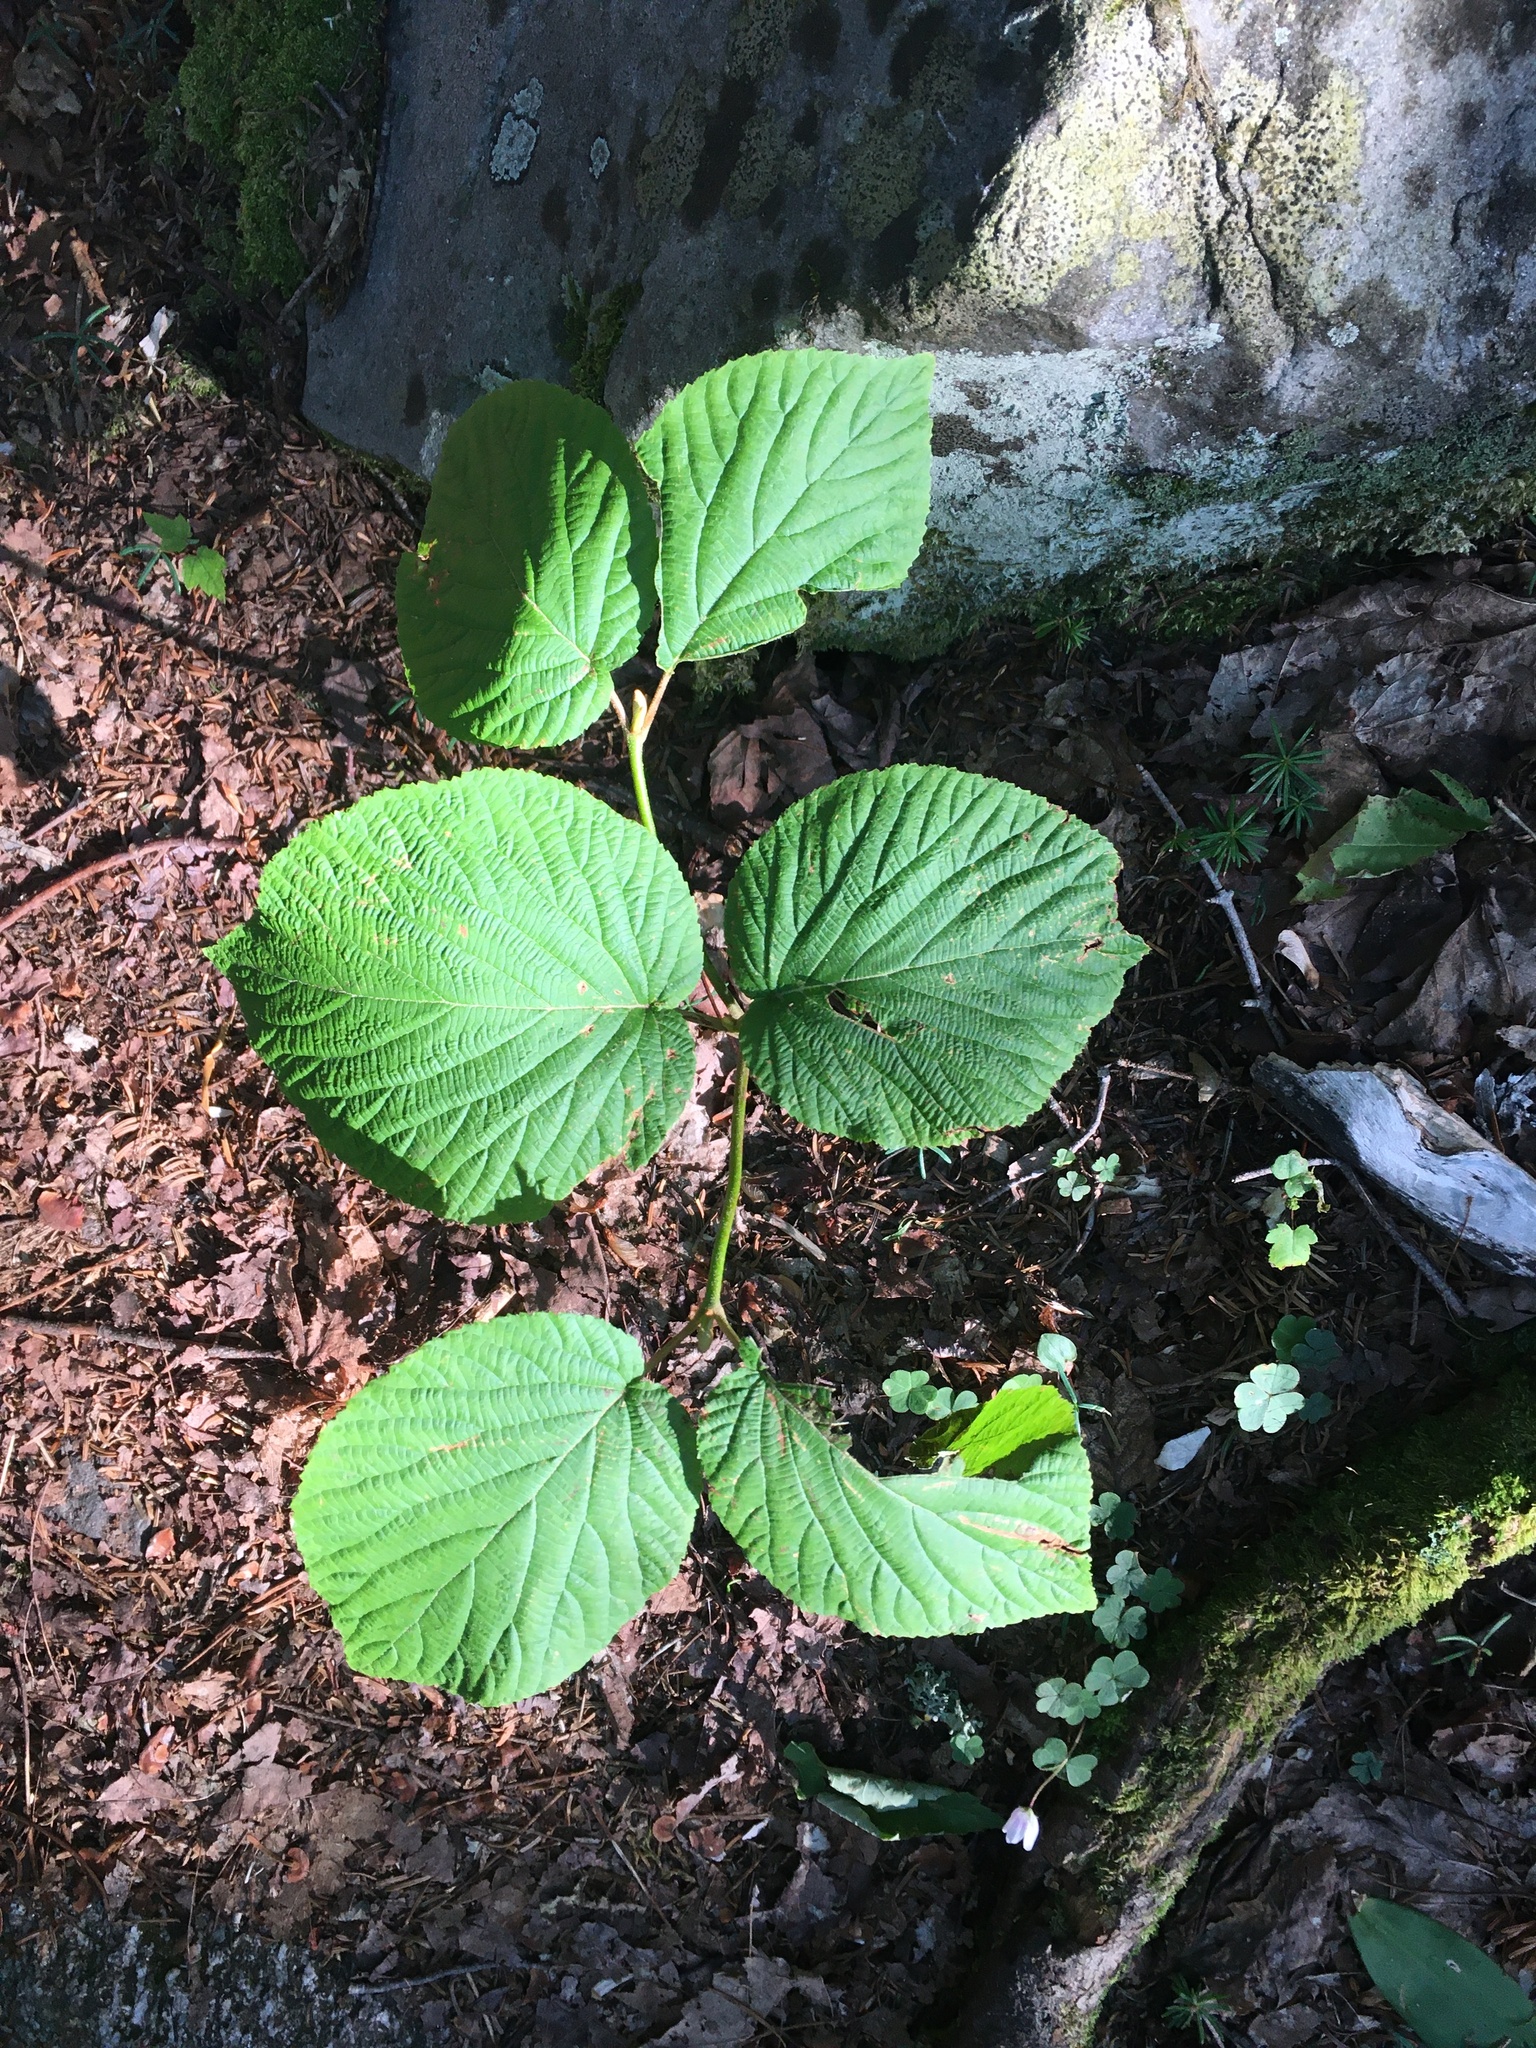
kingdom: Plantae
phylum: Tracheophyta
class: Magnoliopsida
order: Dipsacales
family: Viburnaceae
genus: Viburnum
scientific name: Viburnum lantanoides
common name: Hobblebush
